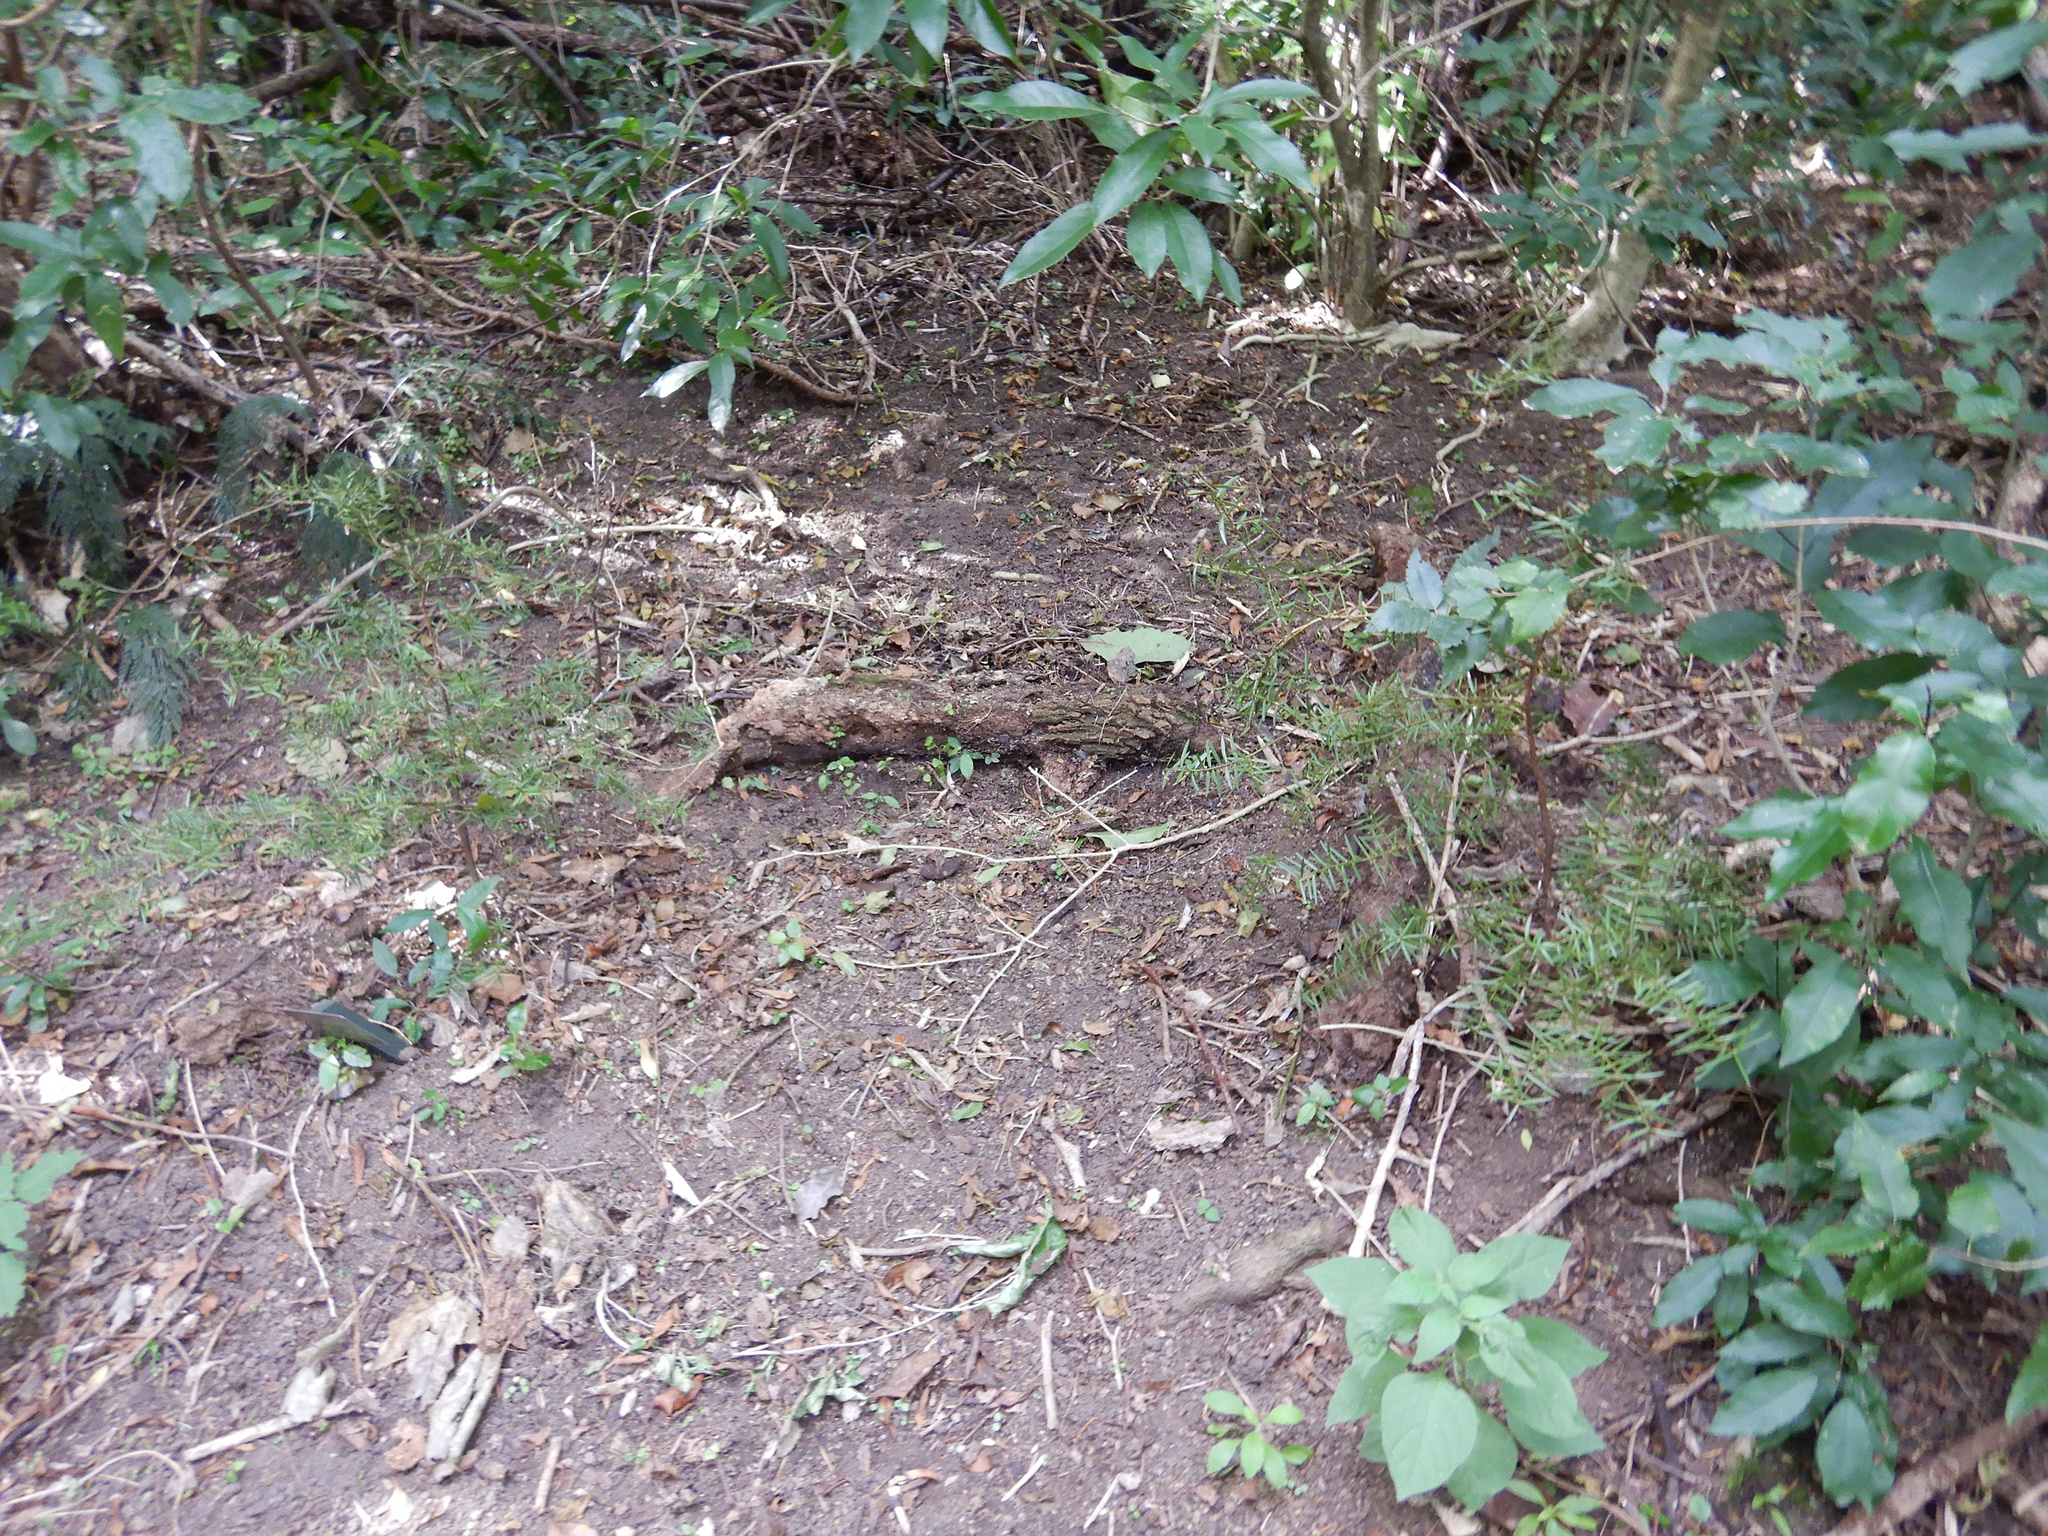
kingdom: Plantae
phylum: Tracheophyta
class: Pinopsida
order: Pinales
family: Podocarpaceae
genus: Podocarpus
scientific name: Podocarpus totara
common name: Totara
